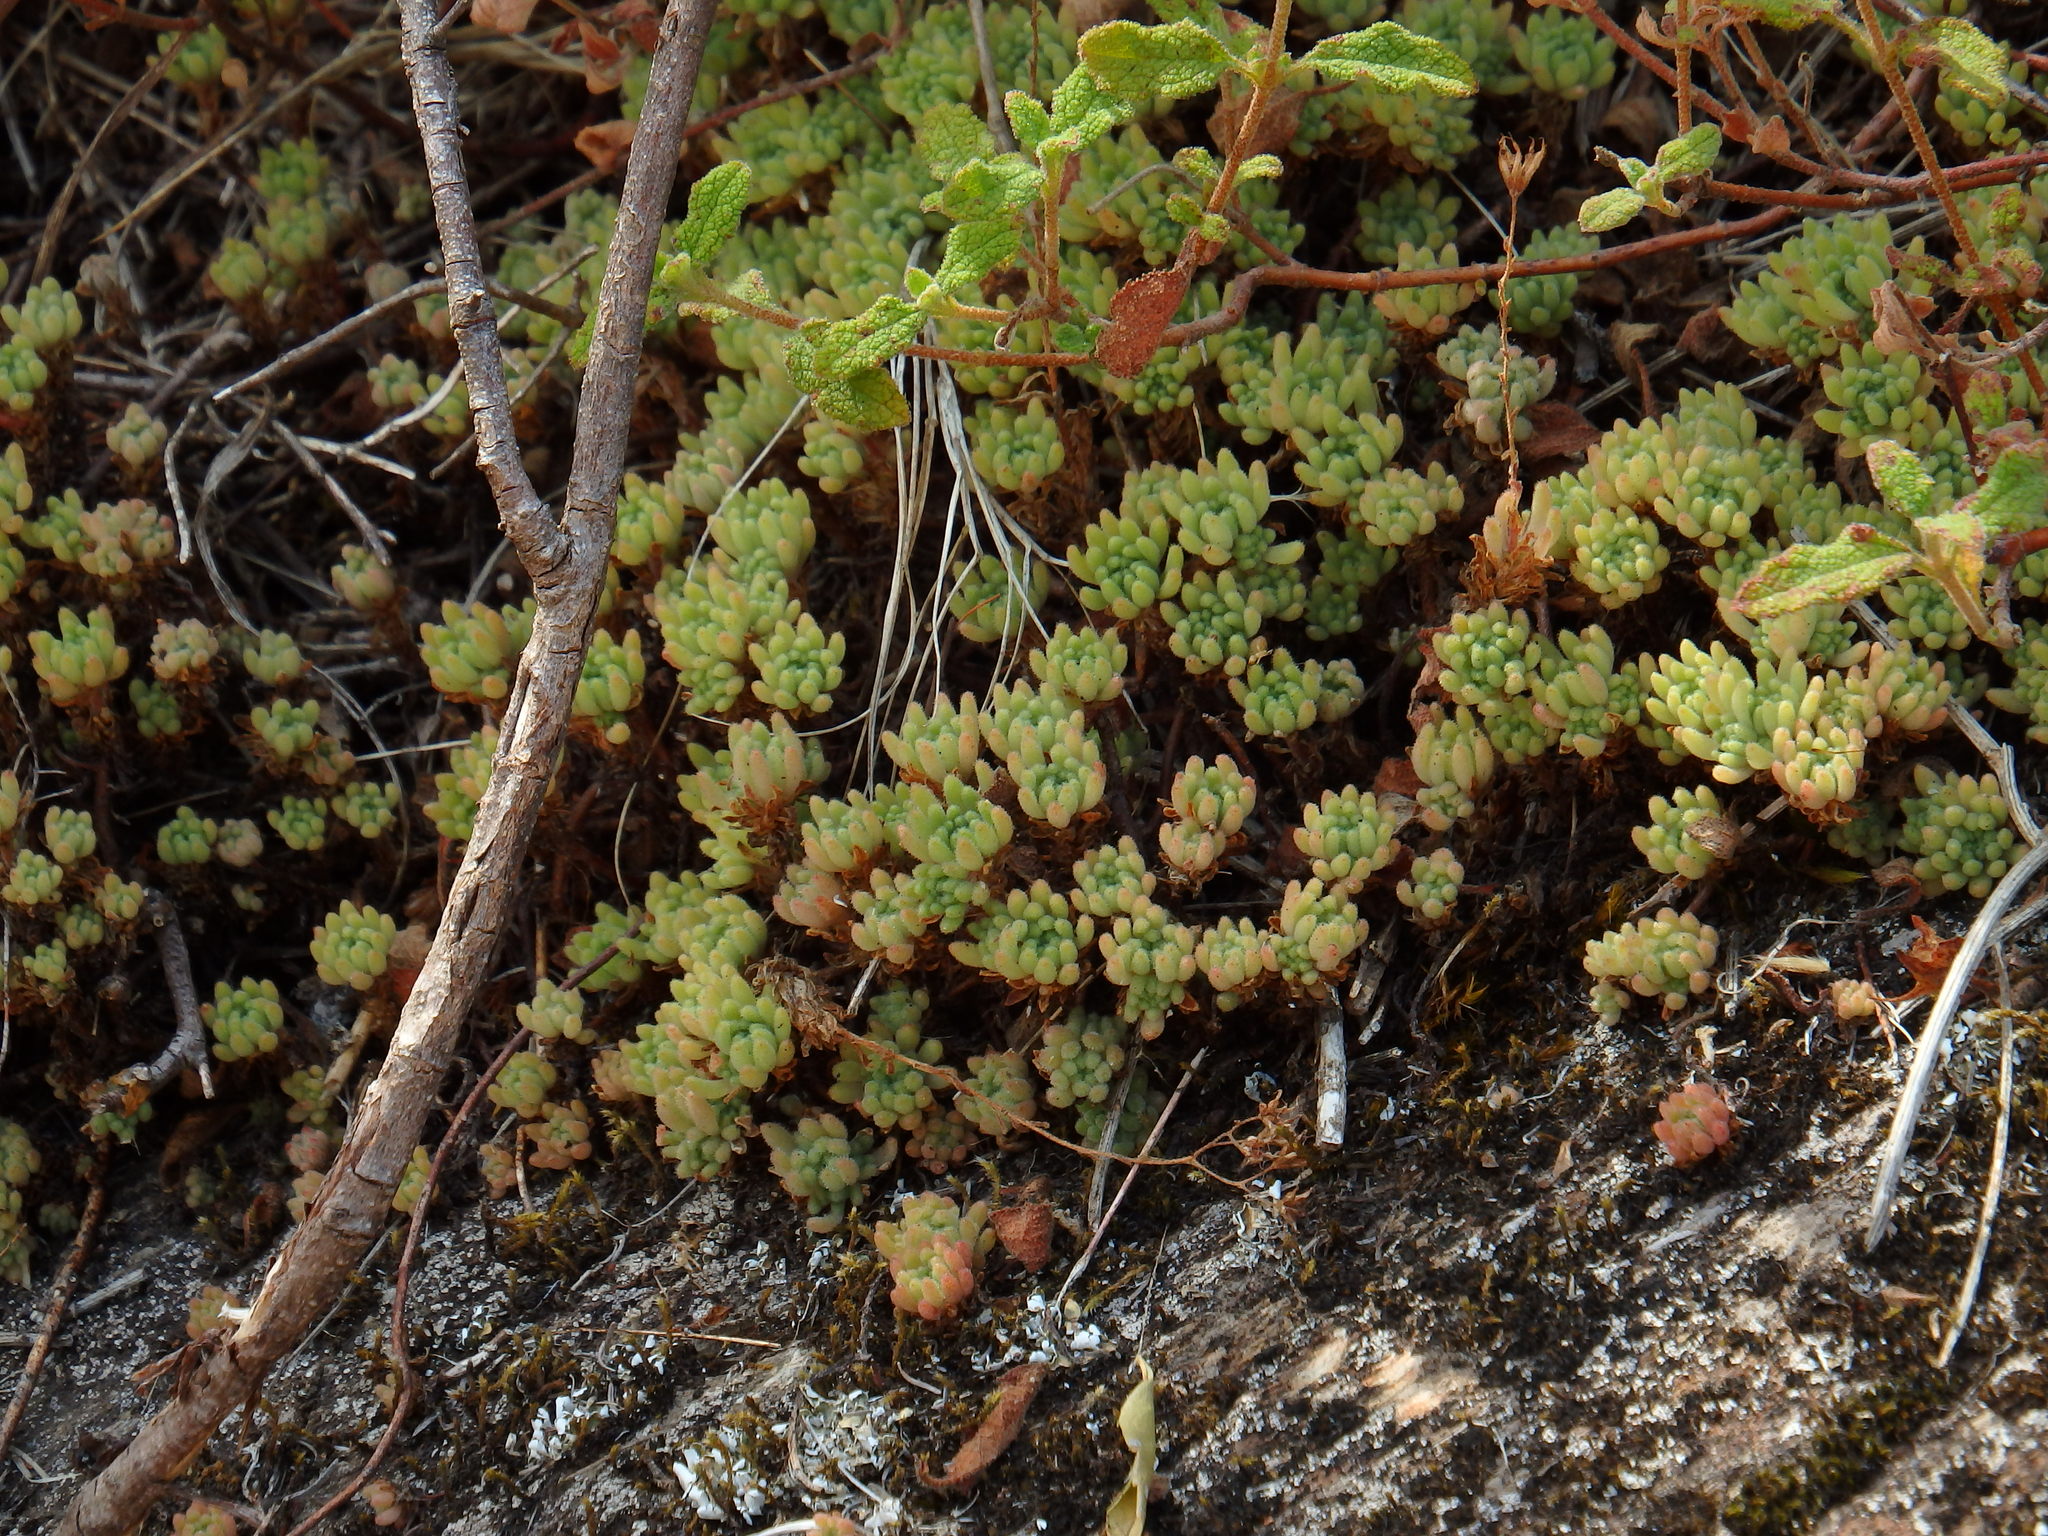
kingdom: Plantae
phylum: Tracheophyta
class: Magnoliopsida
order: Saxifragales
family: Crassulaceae
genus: Sedum
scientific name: Sedum hirsutum
